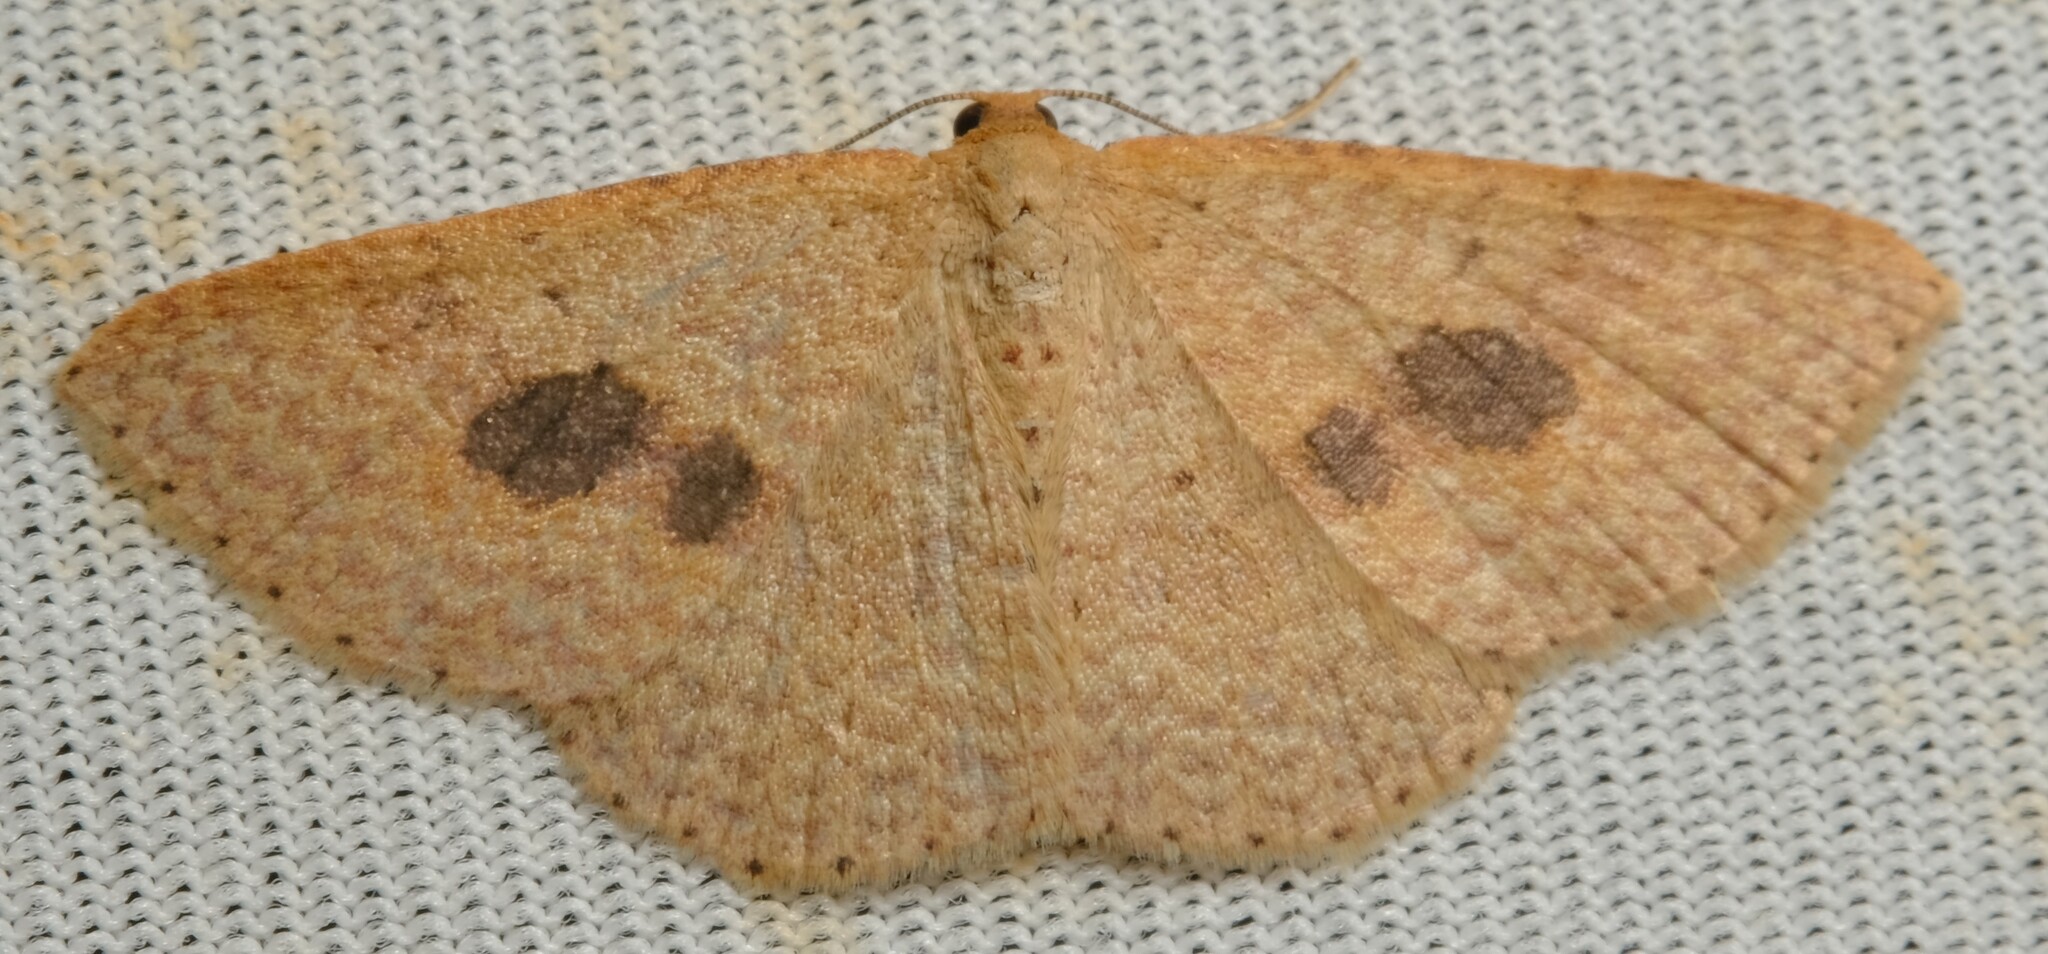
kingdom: Animalia
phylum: Arthropoda
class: Insecta
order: Lepidoptera
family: Geometridae
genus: Epicyme
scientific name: Epicyme rubropunctaria
